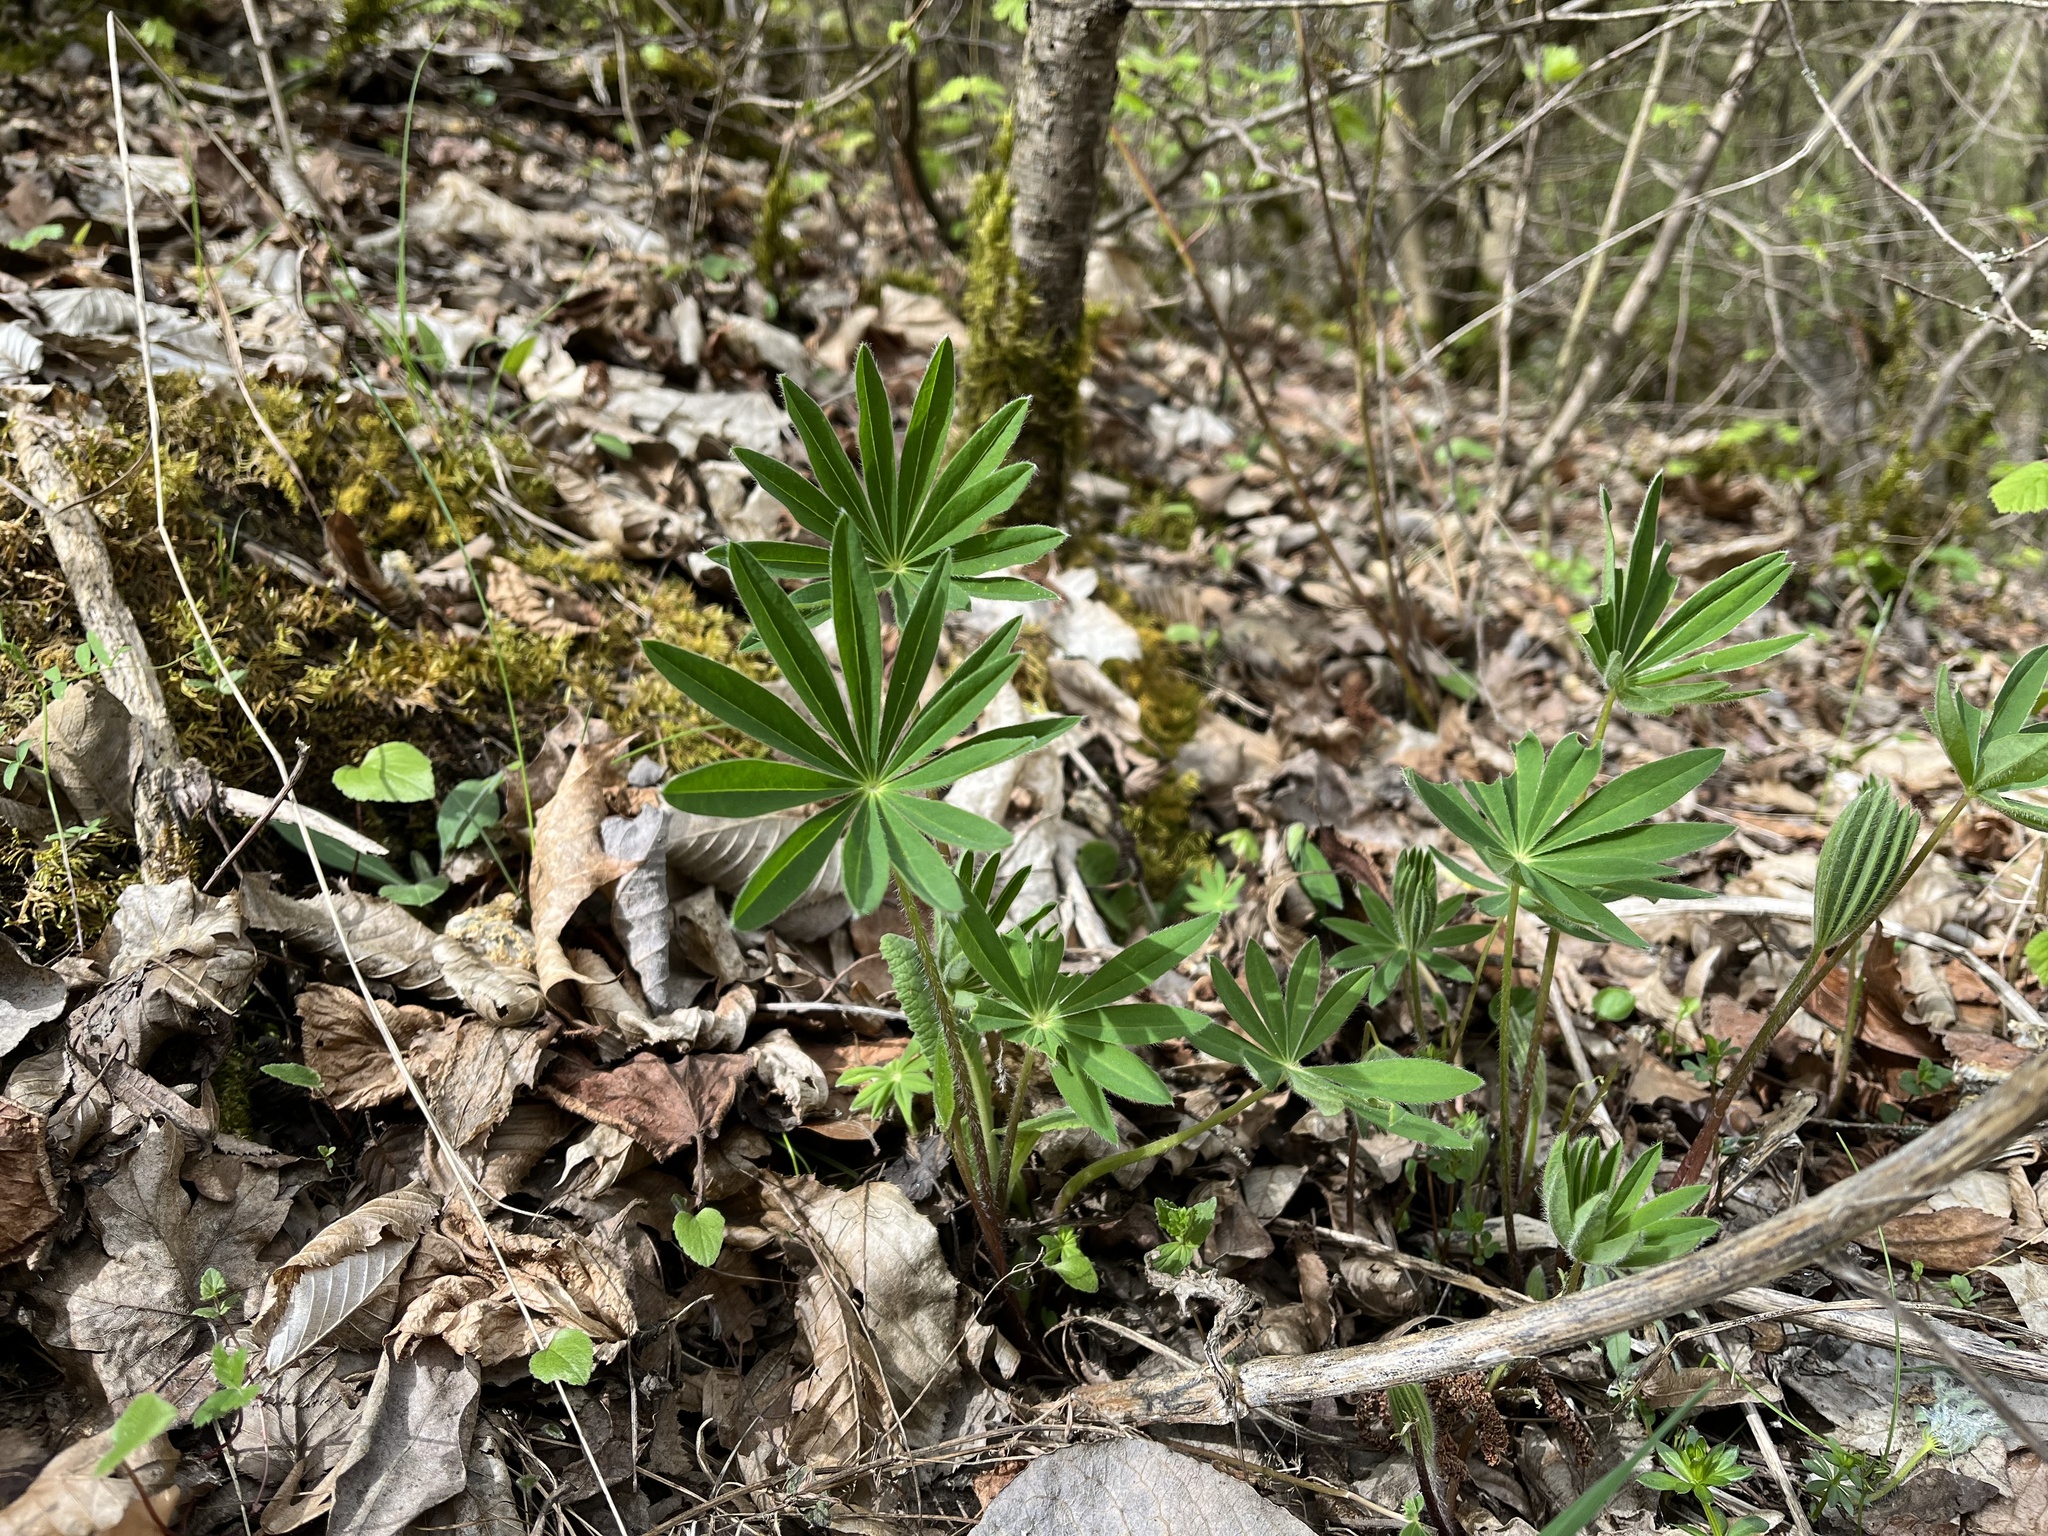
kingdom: Plantae
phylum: Tracheophyta
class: Magnoliopsida
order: Fabales
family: Fabaceae
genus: Lupinus
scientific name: Lupinus polyphyllus
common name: Garden lupin
